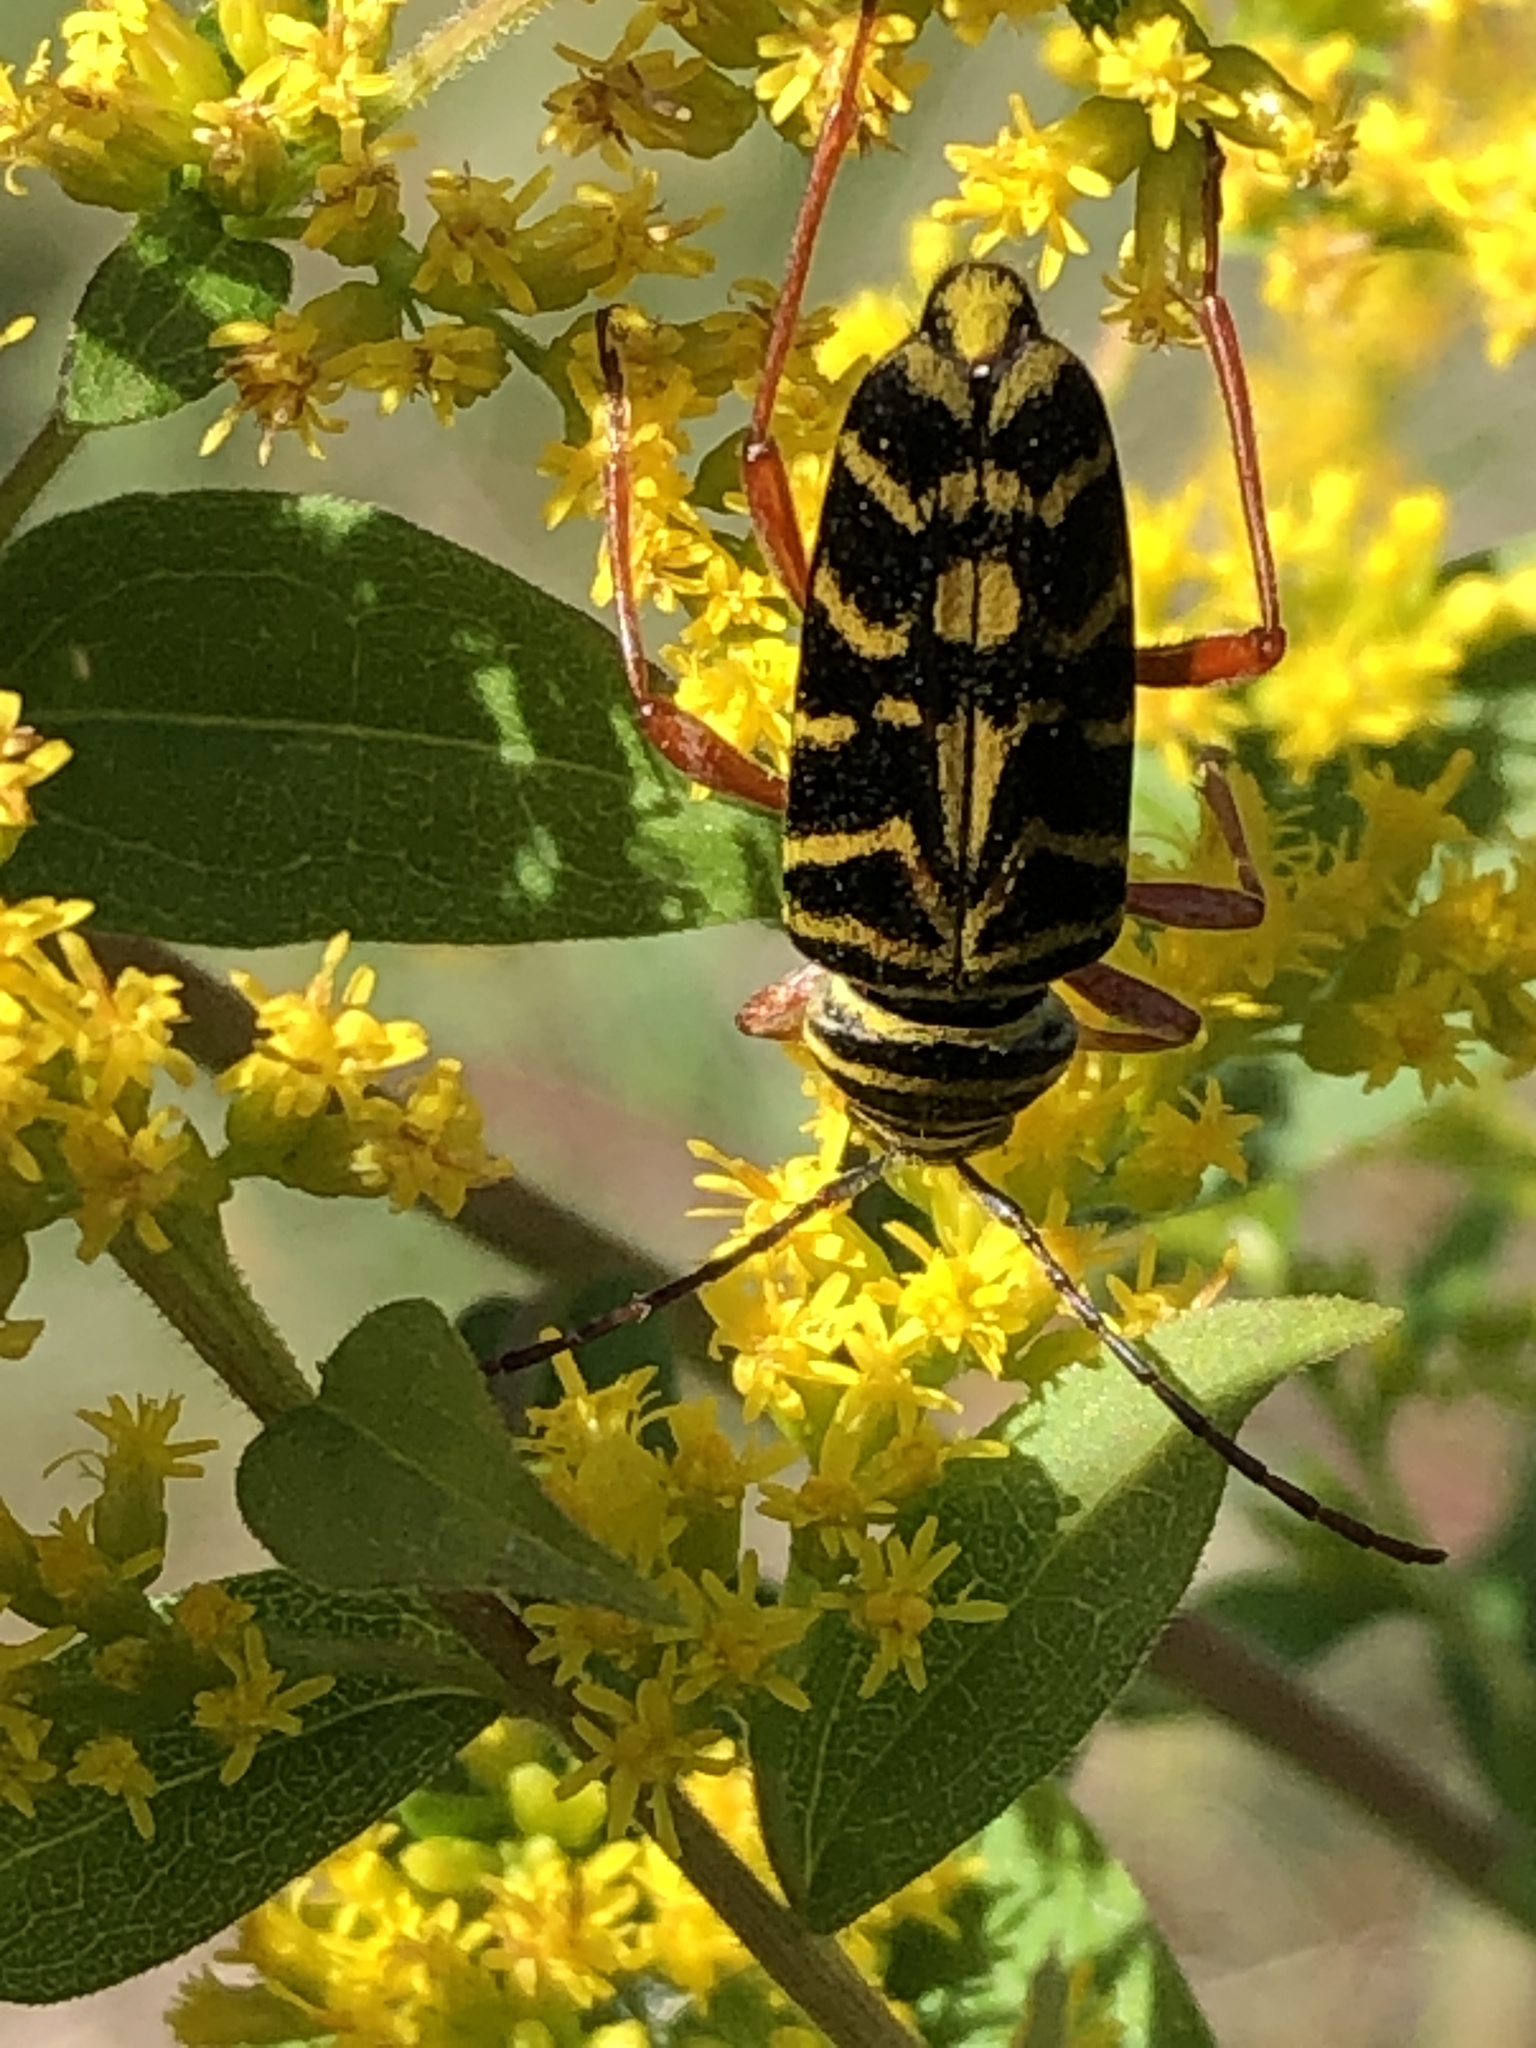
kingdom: Animalia
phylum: Arthropoda
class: Insecta
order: Coleoptera
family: Cerambycidae
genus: Megacyllene
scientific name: Megacyllene robiniae
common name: Locust borer
